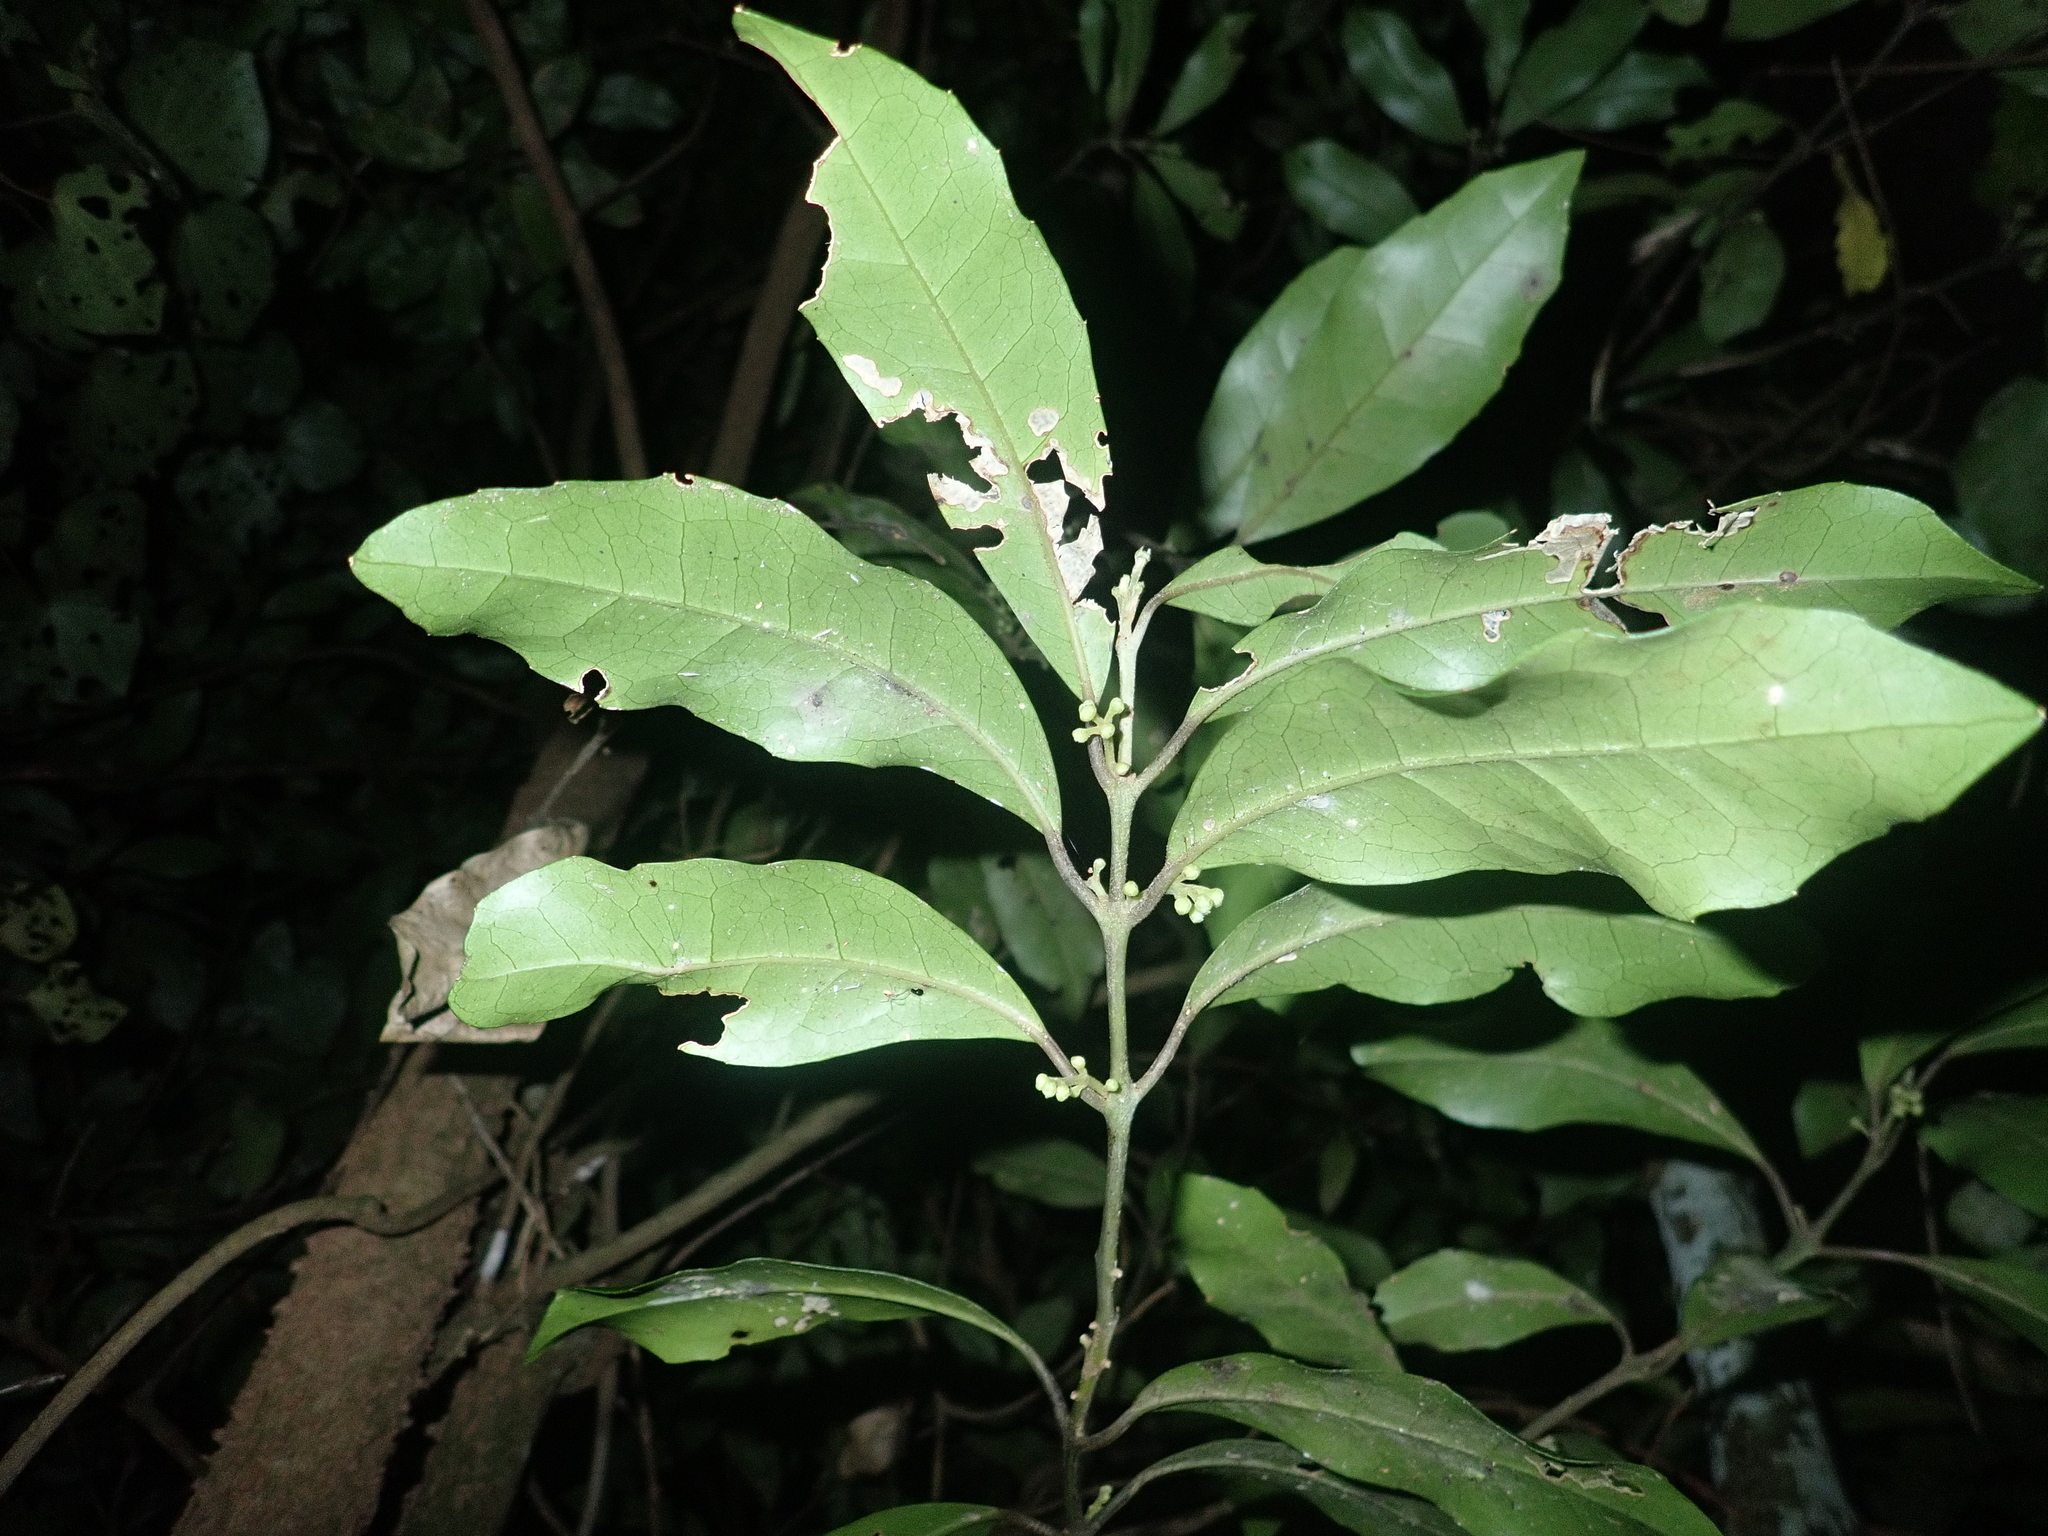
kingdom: Plantae
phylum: Tracheophyta
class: Magnoliopsida
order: Laurales
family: Monimiaceae
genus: Hedycarya
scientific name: Hedycarya arborea
